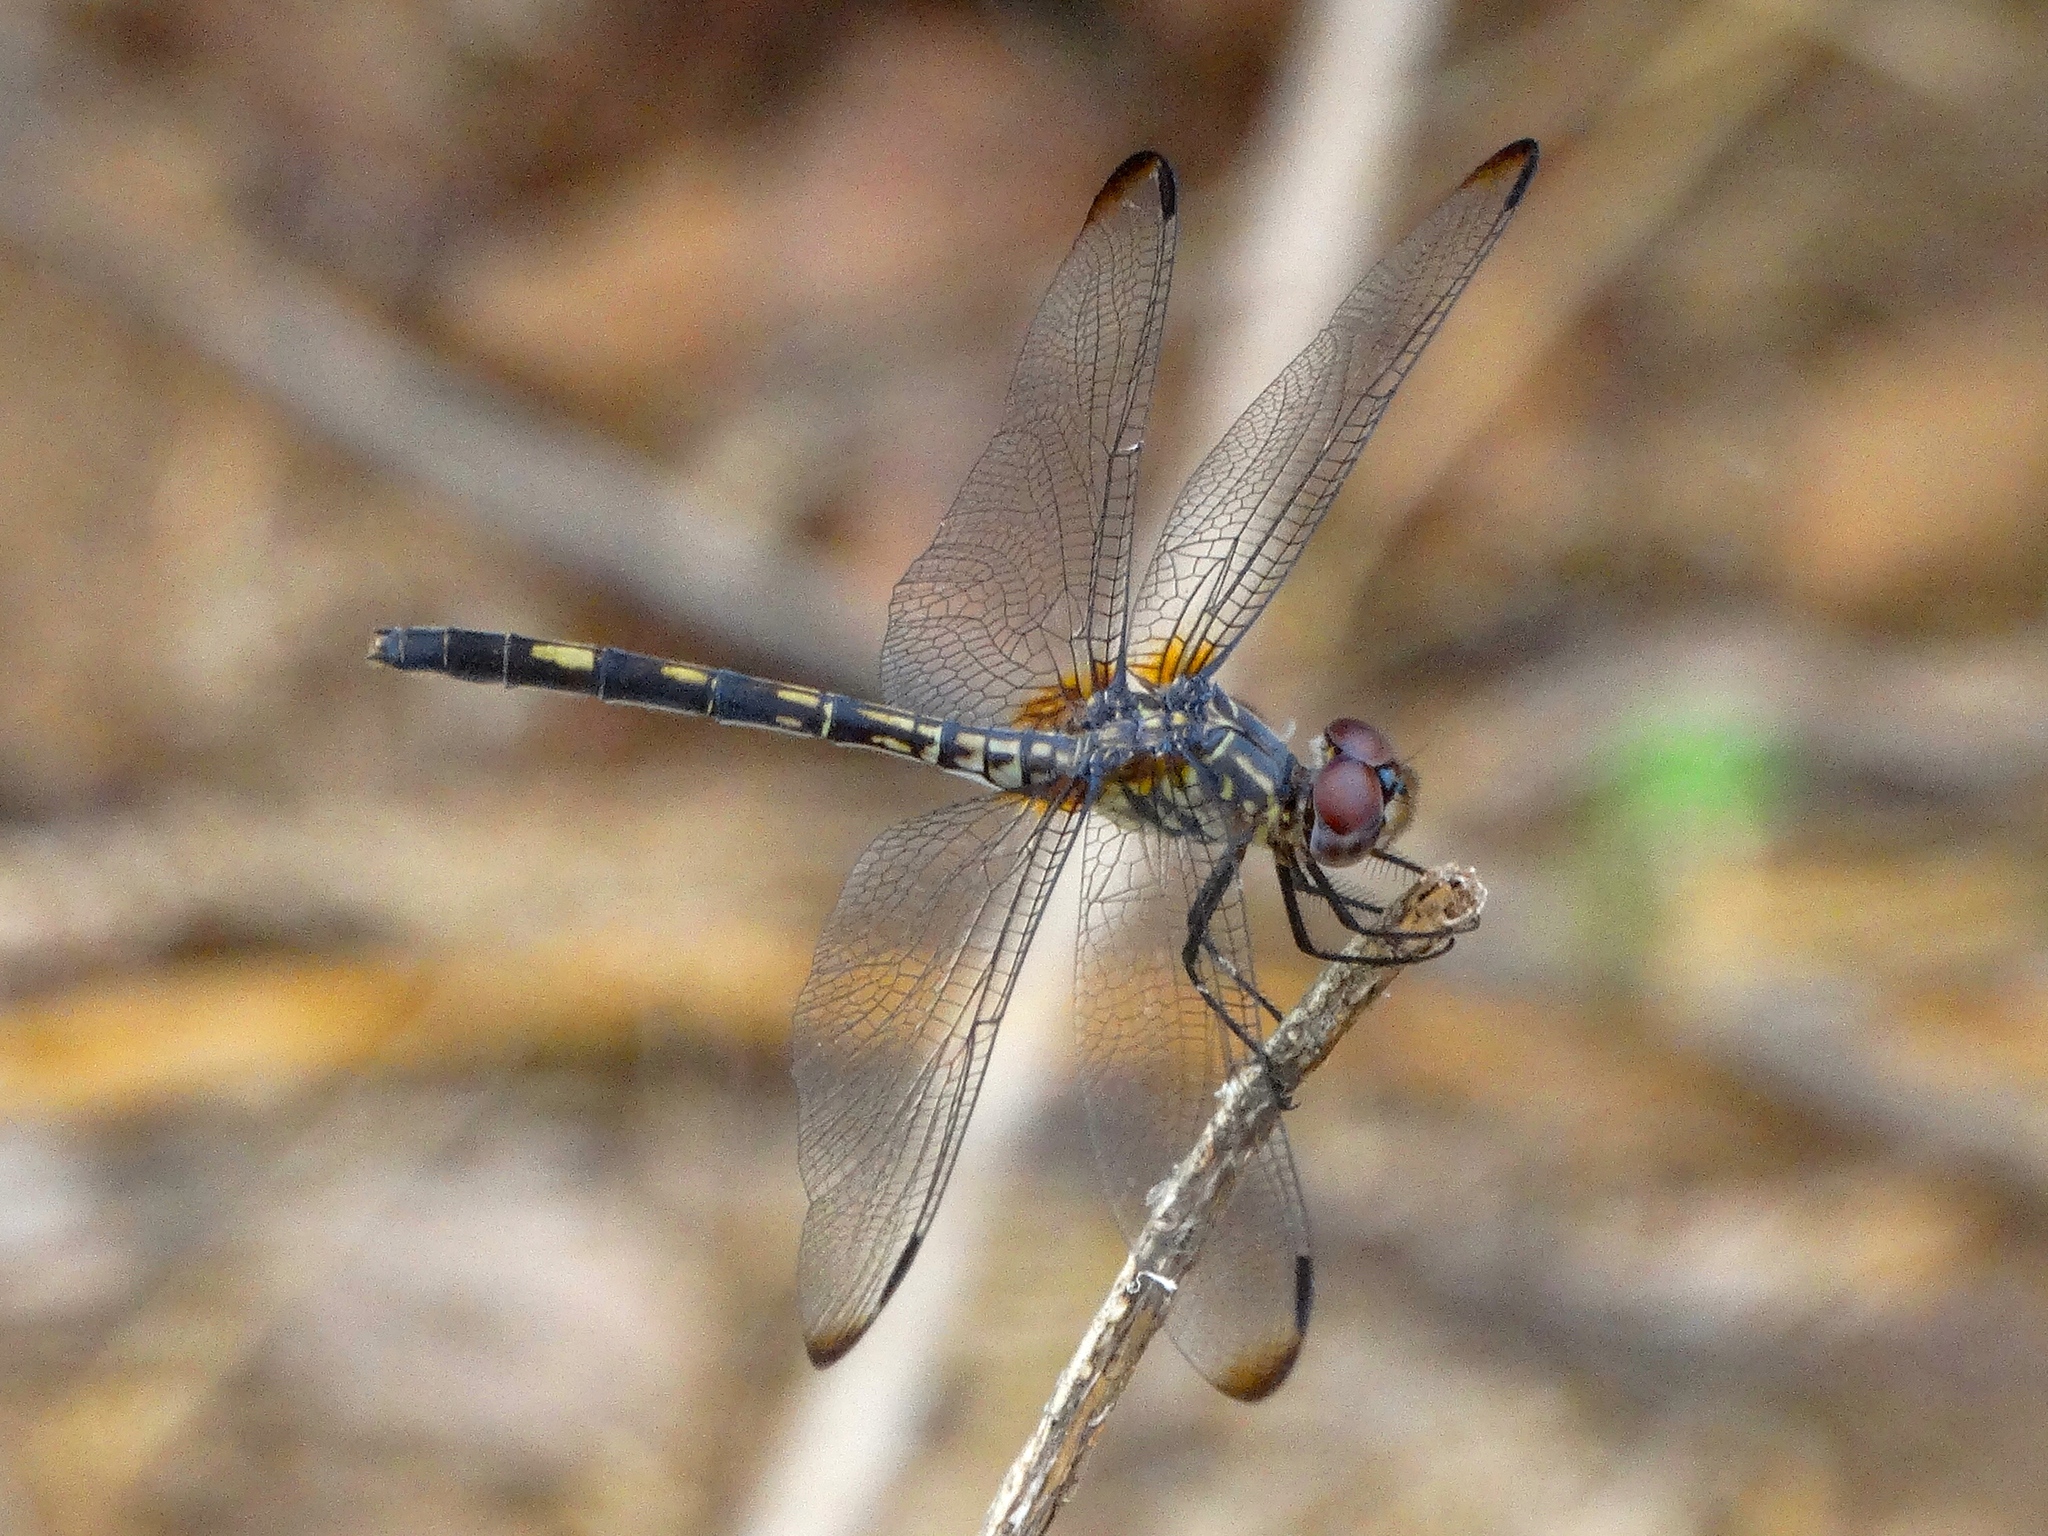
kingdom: Animalia
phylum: Arthropoda
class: Insecta
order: Odonata
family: Libellulidae
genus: Dythemis
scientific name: Dythemis sterilis
